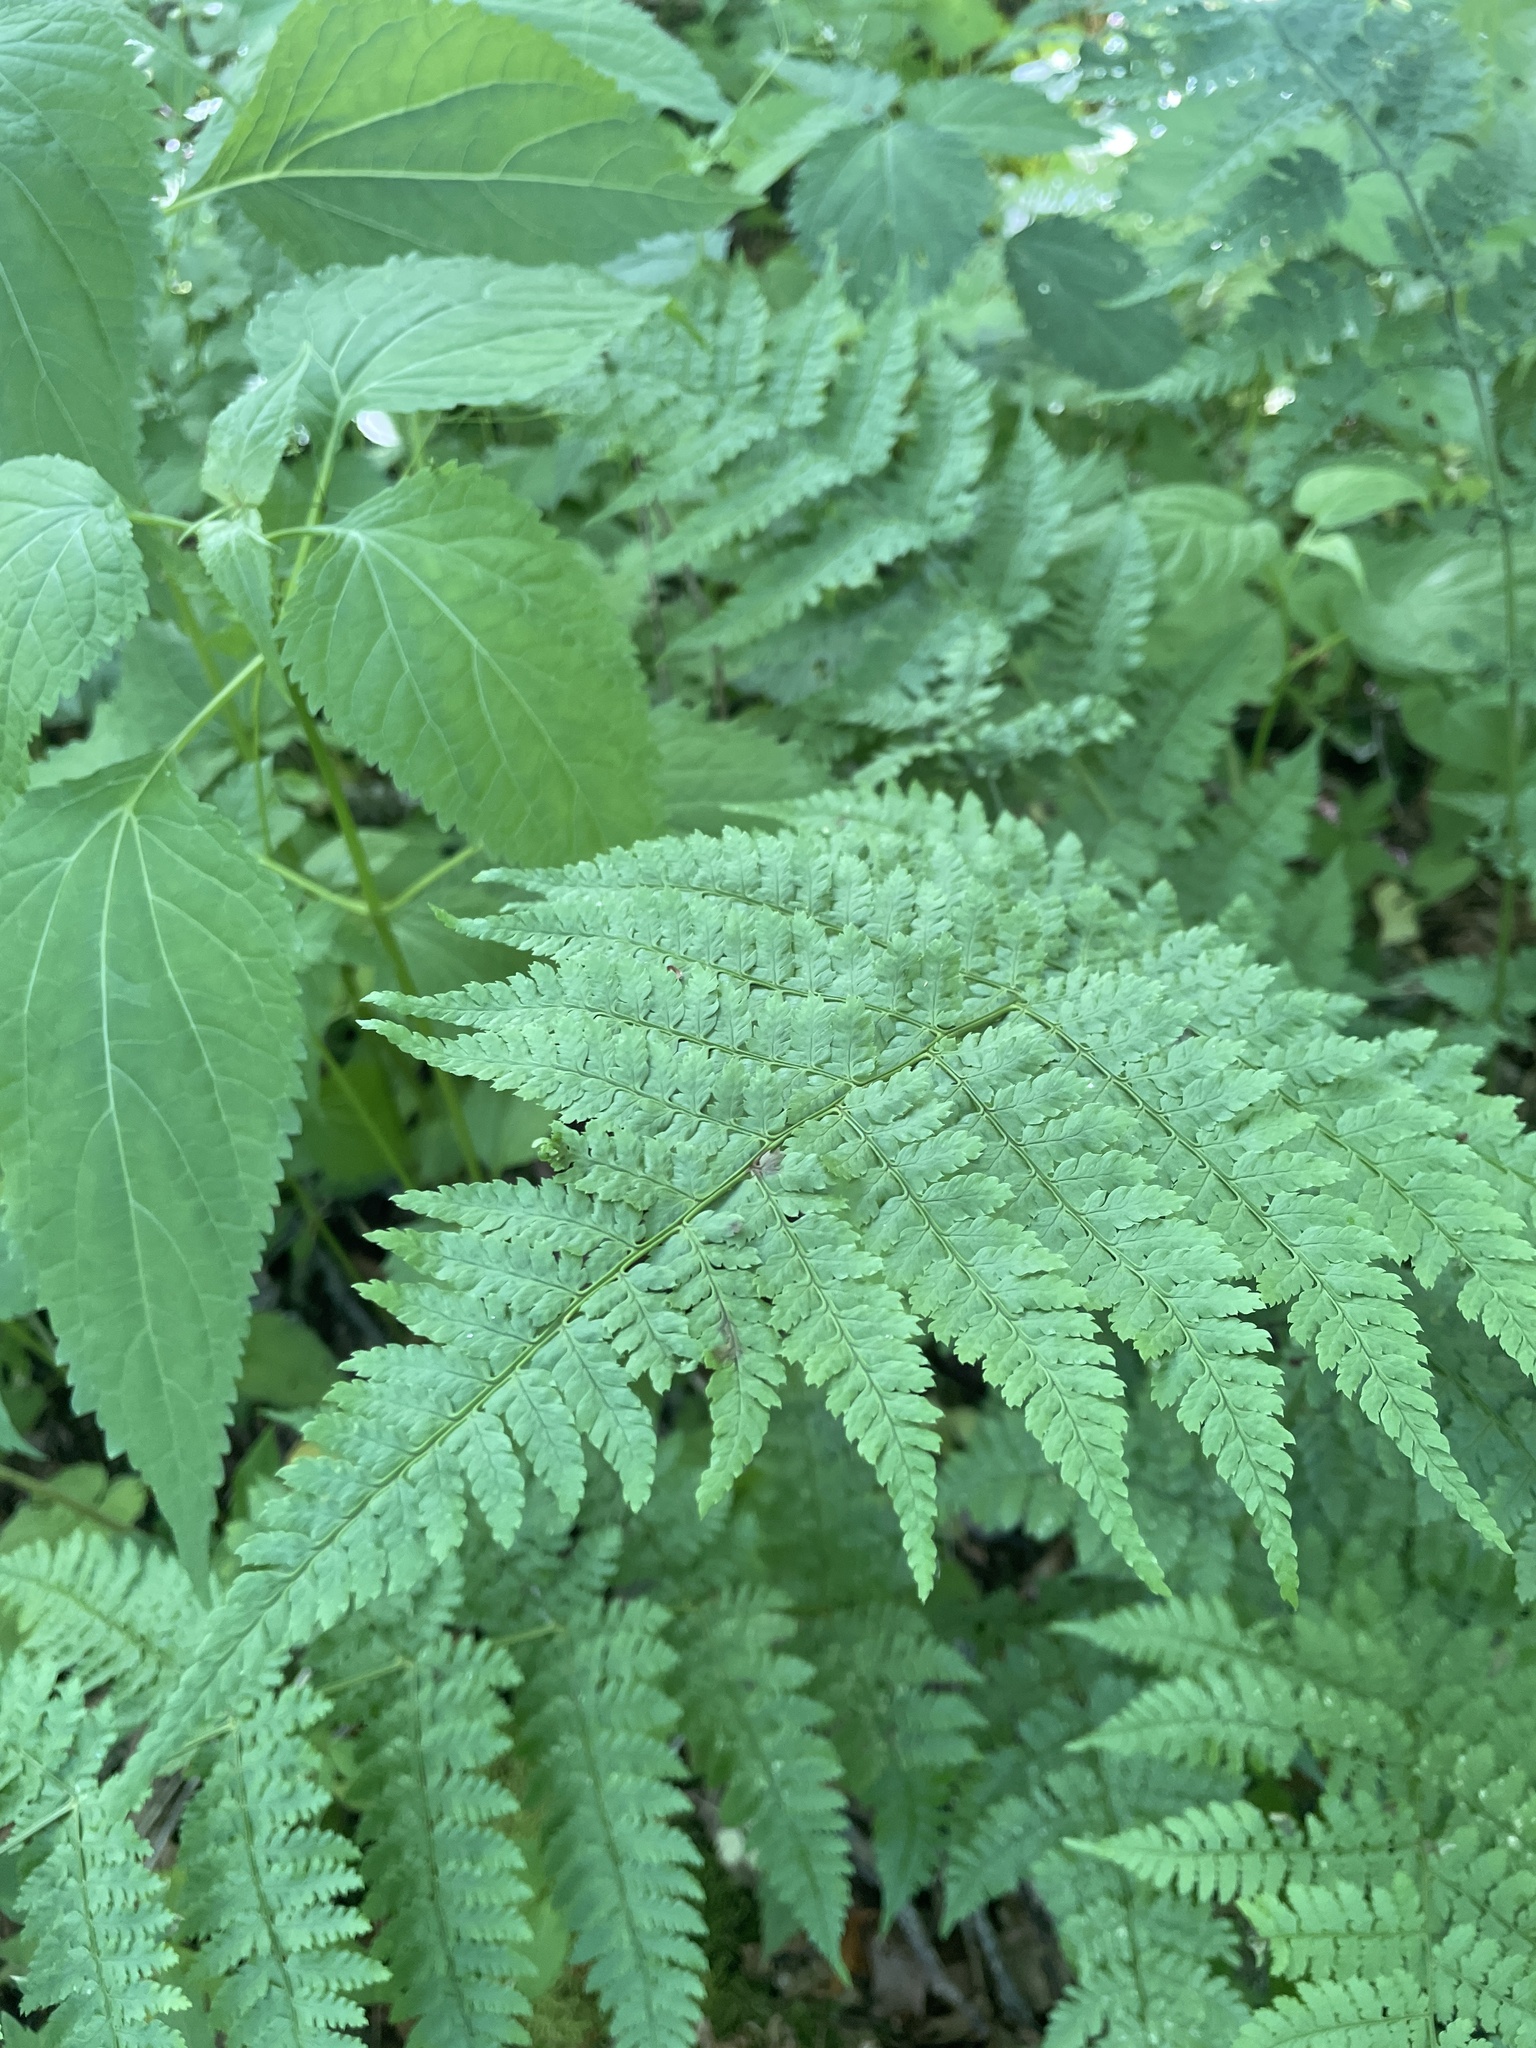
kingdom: Plantae
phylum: Tracheophyta
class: Polypodiopsida
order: Polypodiales
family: Dryopteridaceae
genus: Dryopteris
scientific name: Dryopteris intermedia
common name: Evergreen wood fern
